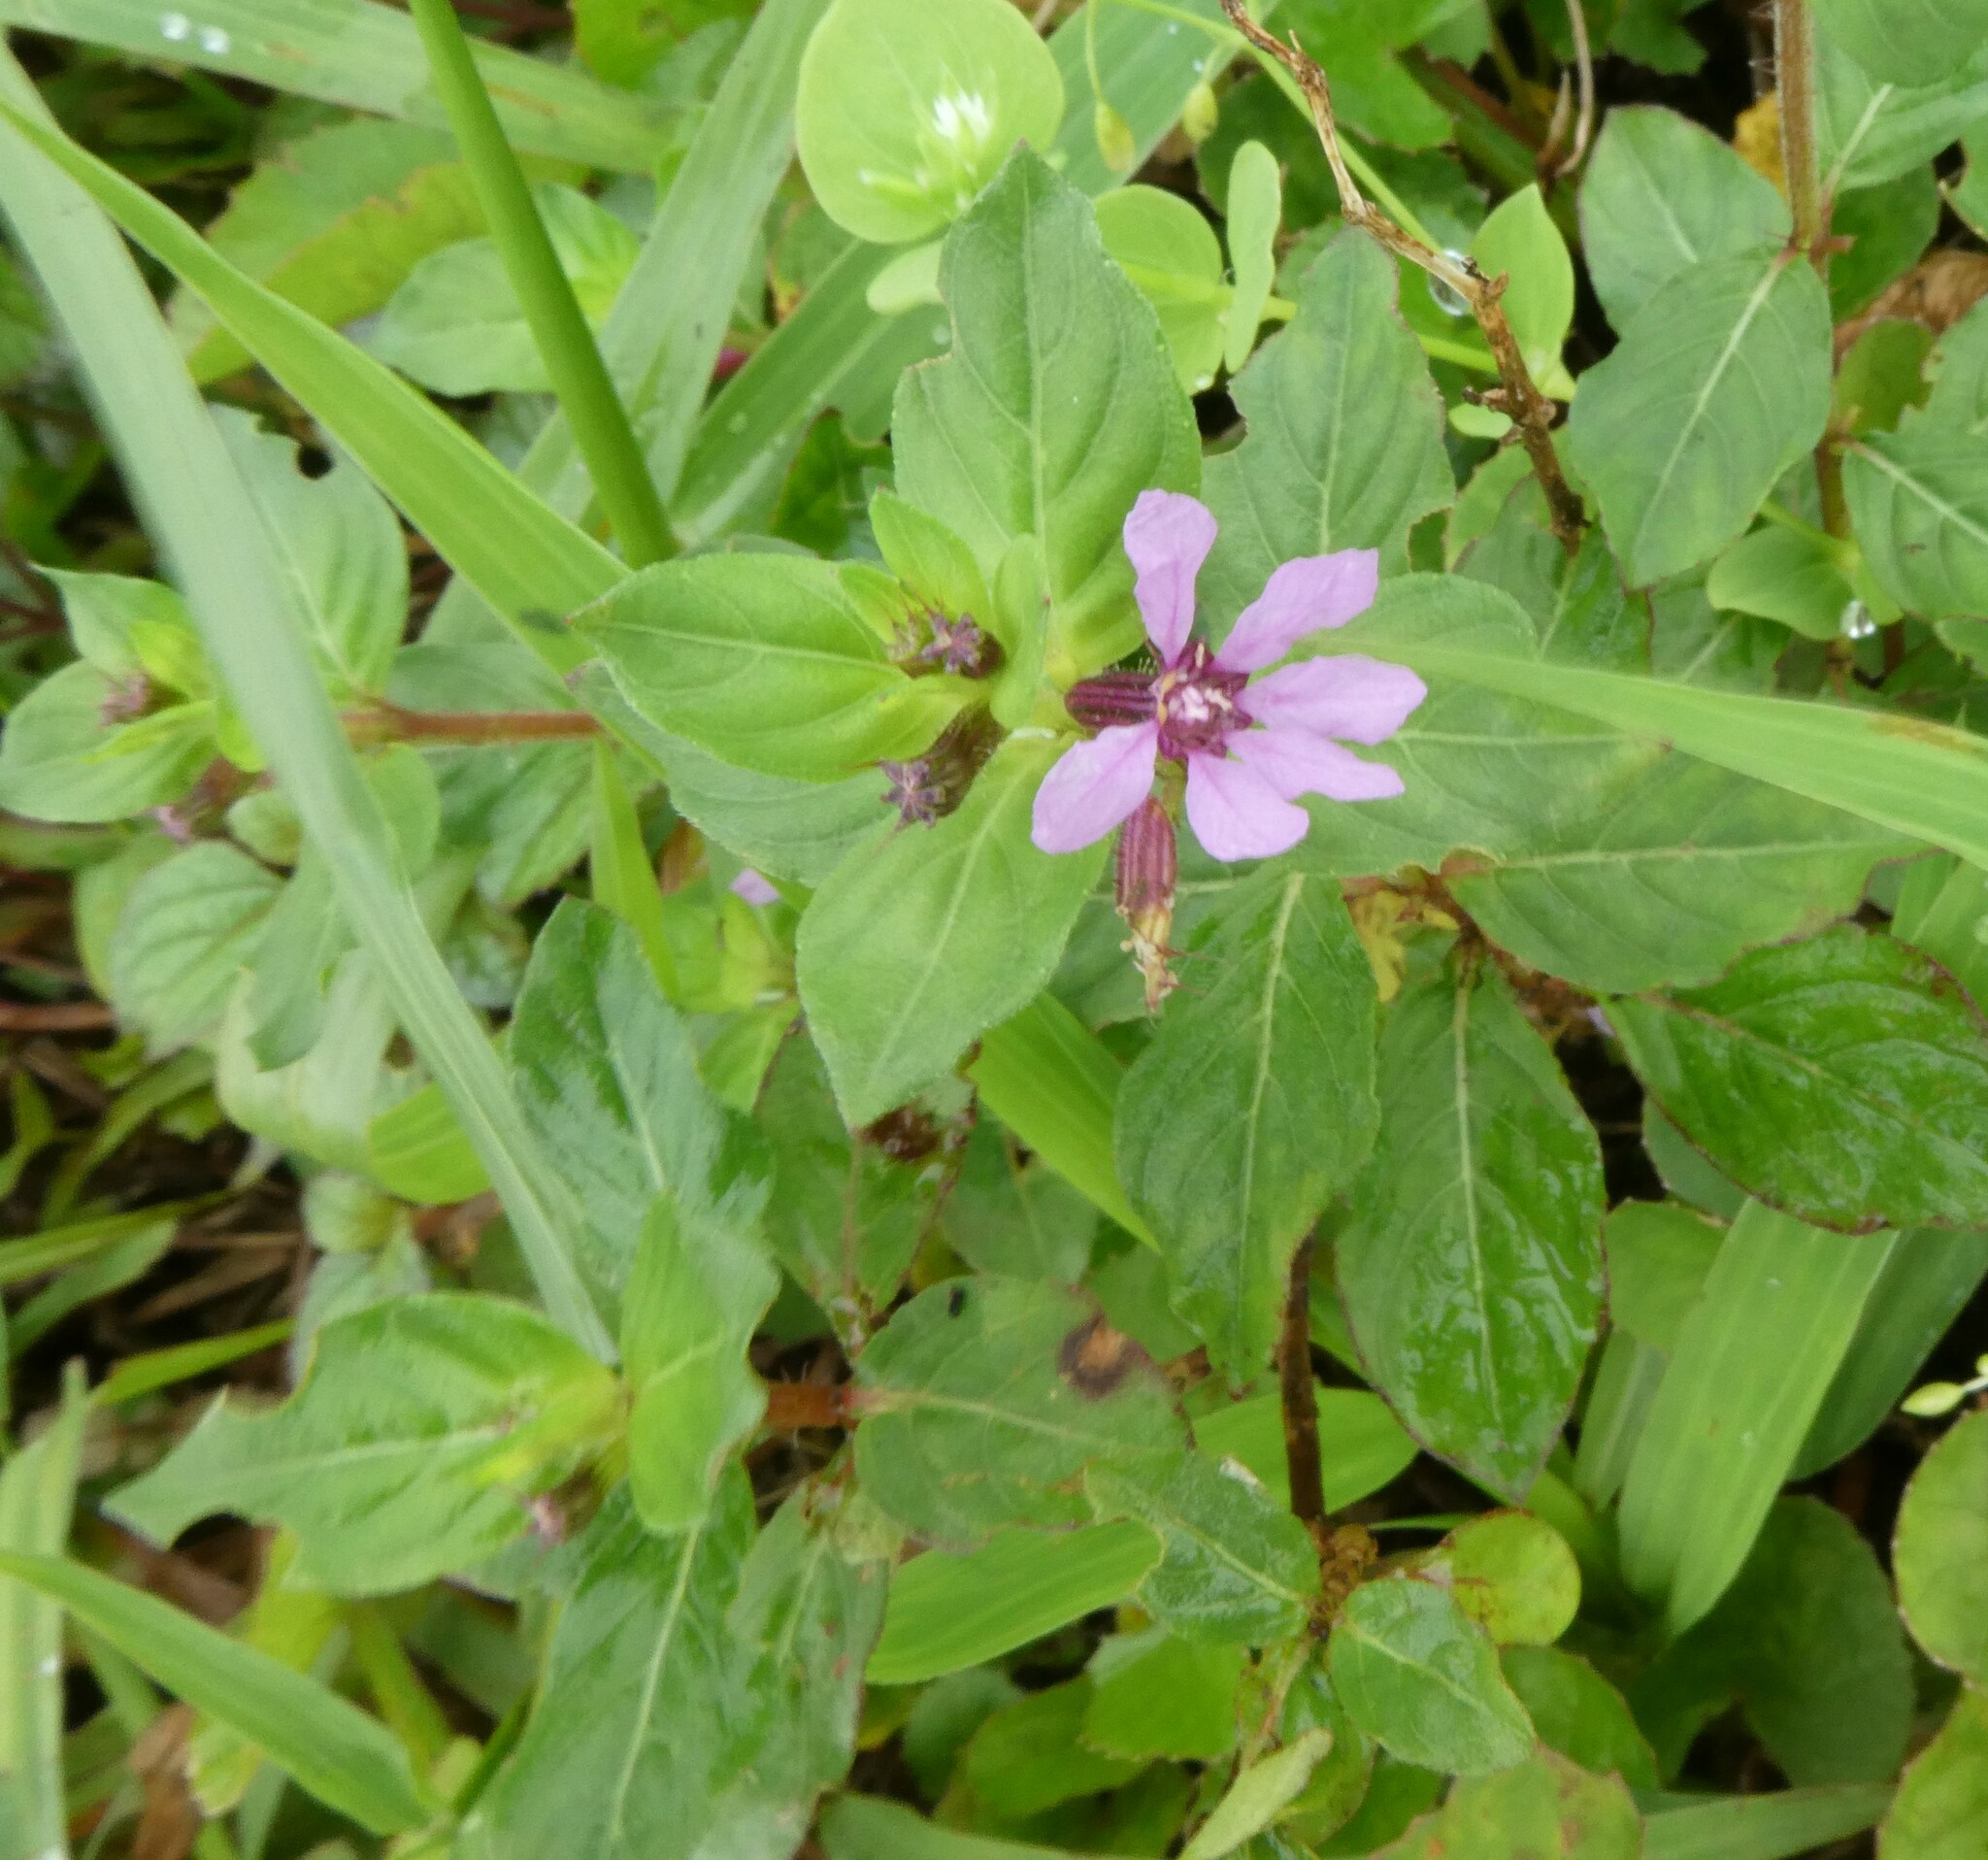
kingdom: Plantae
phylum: Tracheophyta
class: Magnoliopsida
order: Myrtales
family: Lythraceae
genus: Cuphea
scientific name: Cuphea carthagenensis
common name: Colombian waxweed
